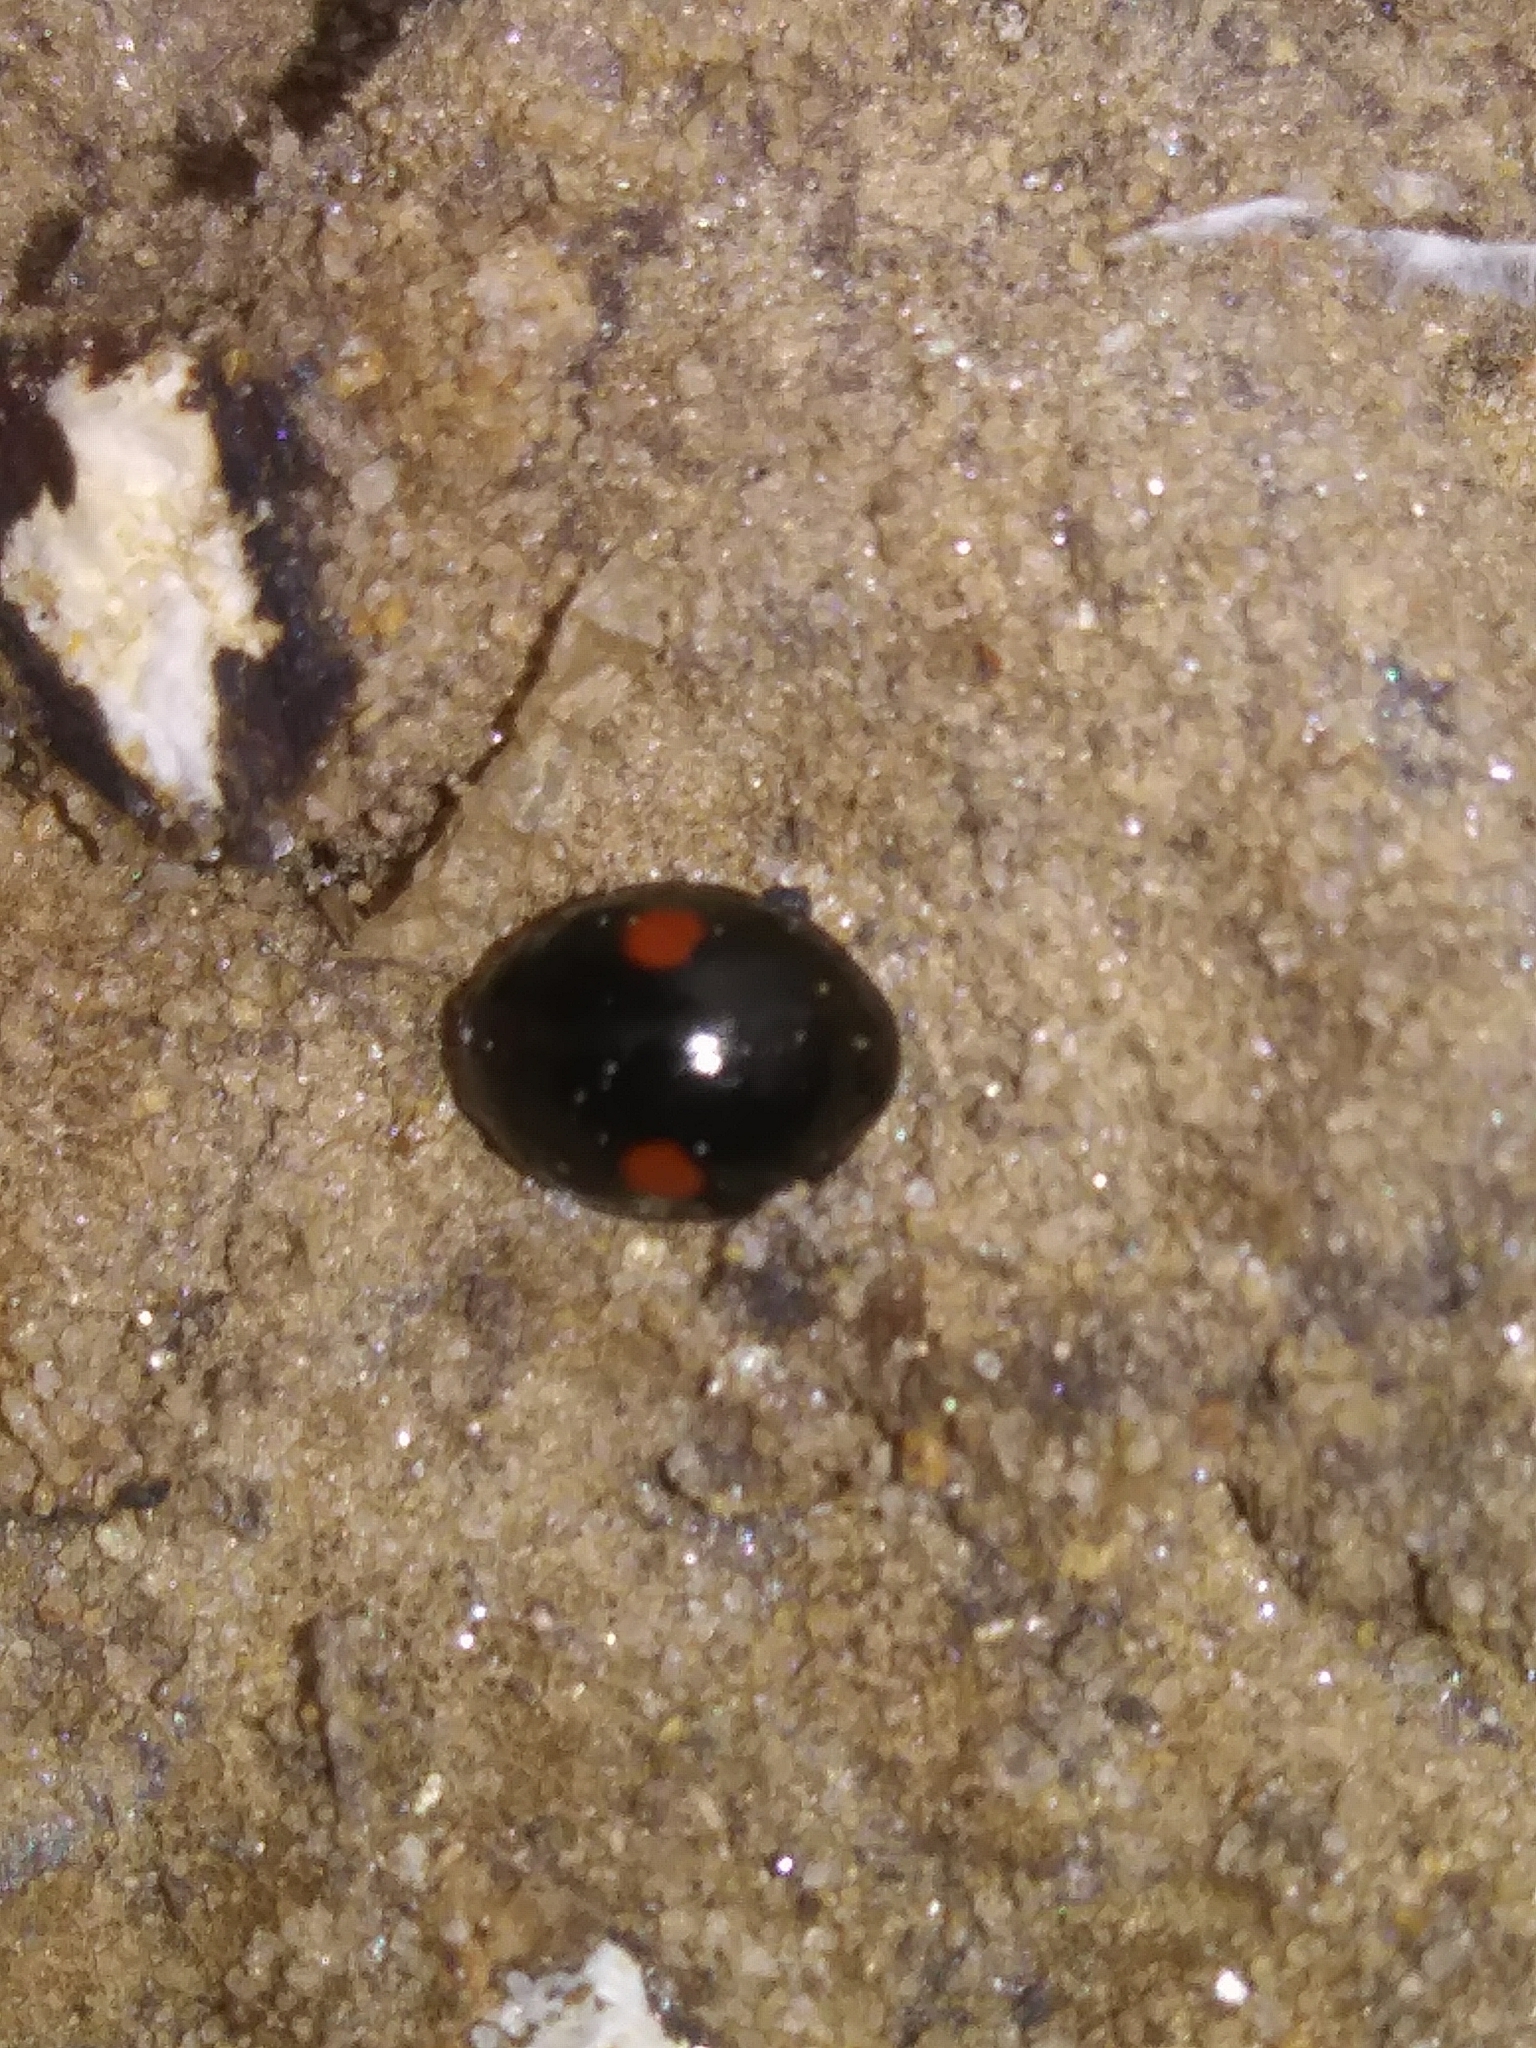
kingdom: Animalia
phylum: Arthropoda
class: Insecta
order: Coleoptera
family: Coccinellidae
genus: Hyperaspis
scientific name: Hyperaspis
